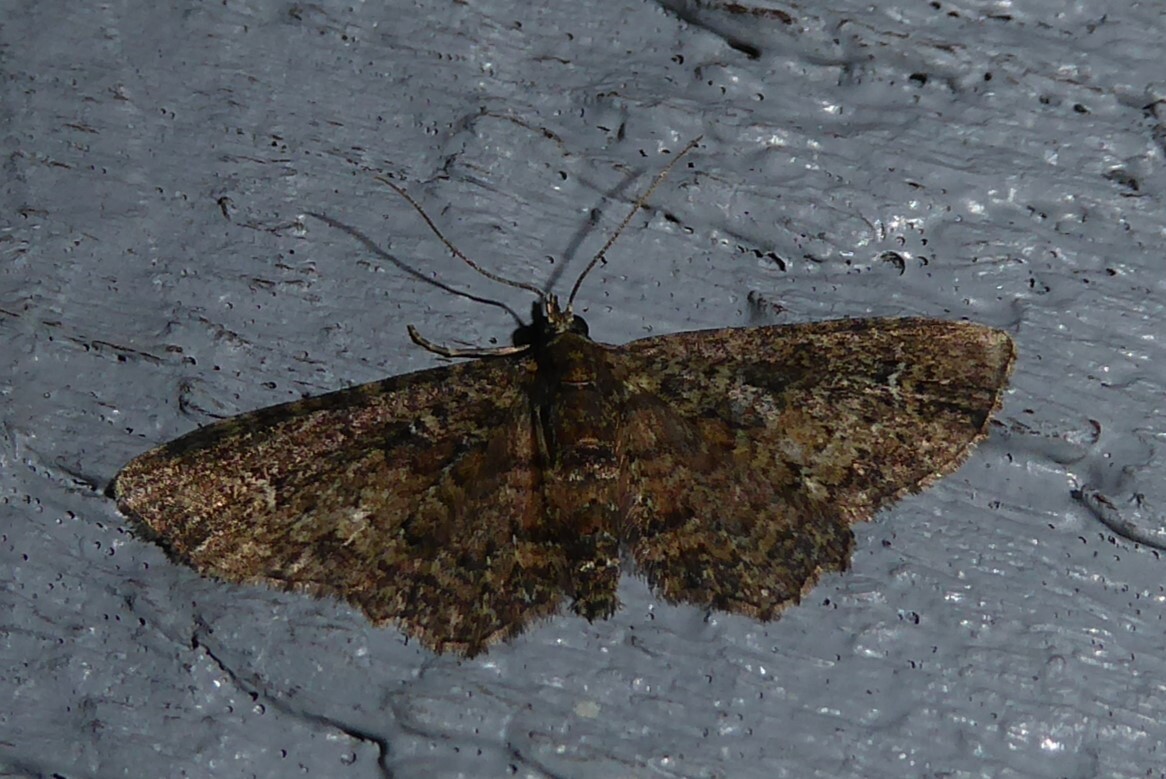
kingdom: Animalia
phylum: Arthropoda
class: Insecta
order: Lepidoptera
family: Geometridae
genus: Pasiphilodes
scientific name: Pasiphilodes testulata
